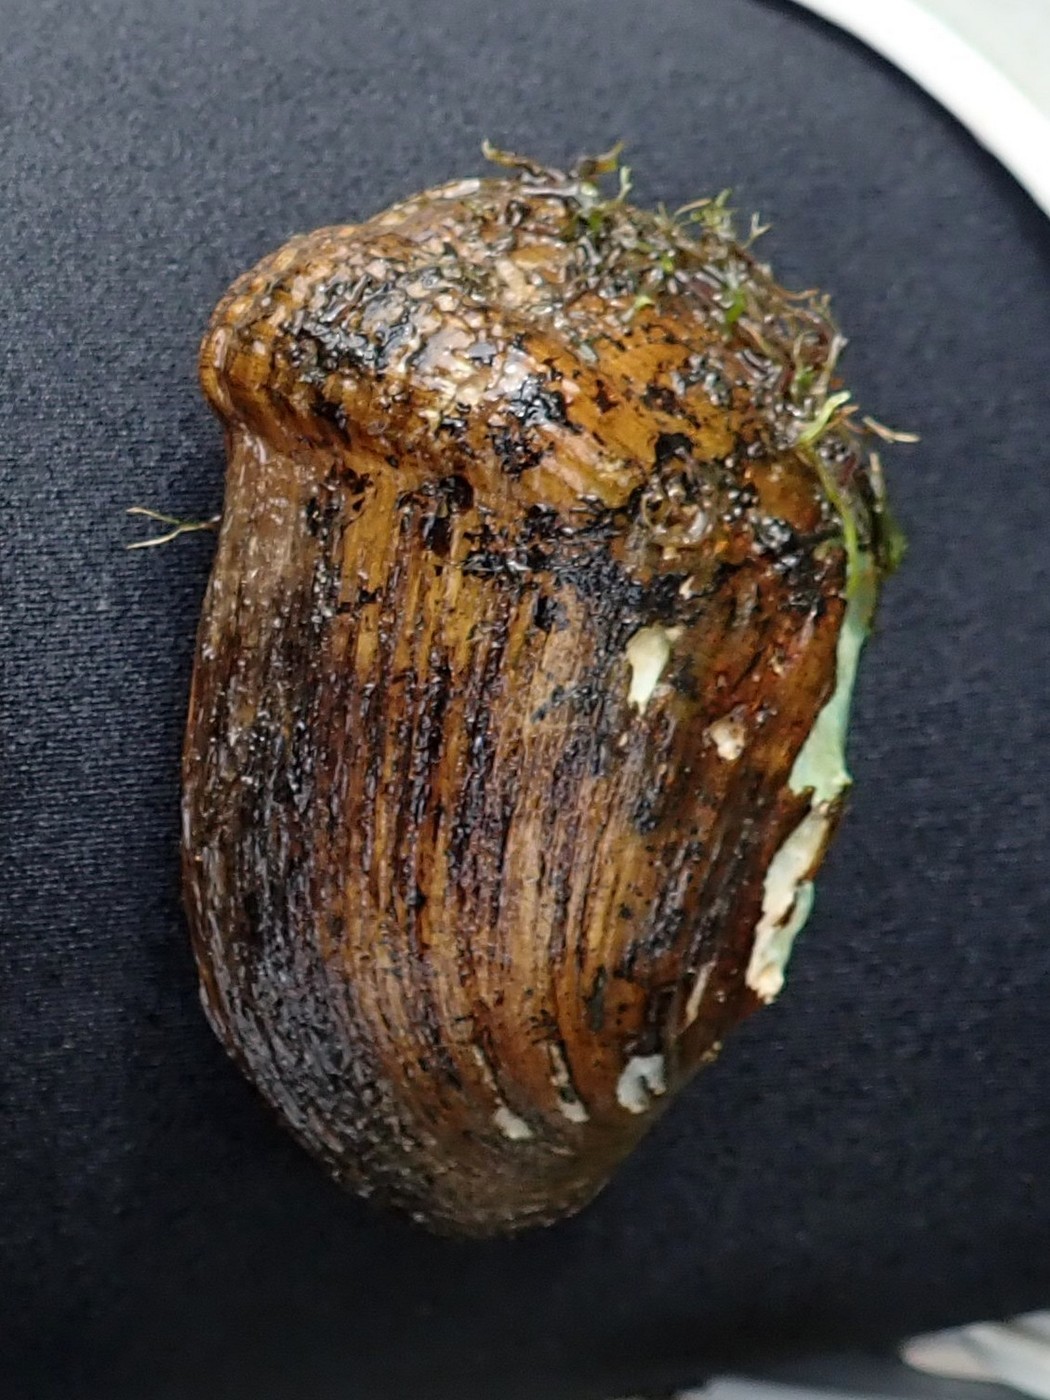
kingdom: Animalia
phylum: Mollusca
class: Bivalvia
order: Unionida
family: Unionidae
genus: Epioblasma
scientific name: Epioblasma brevidens
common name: Cumberlandian combshell
